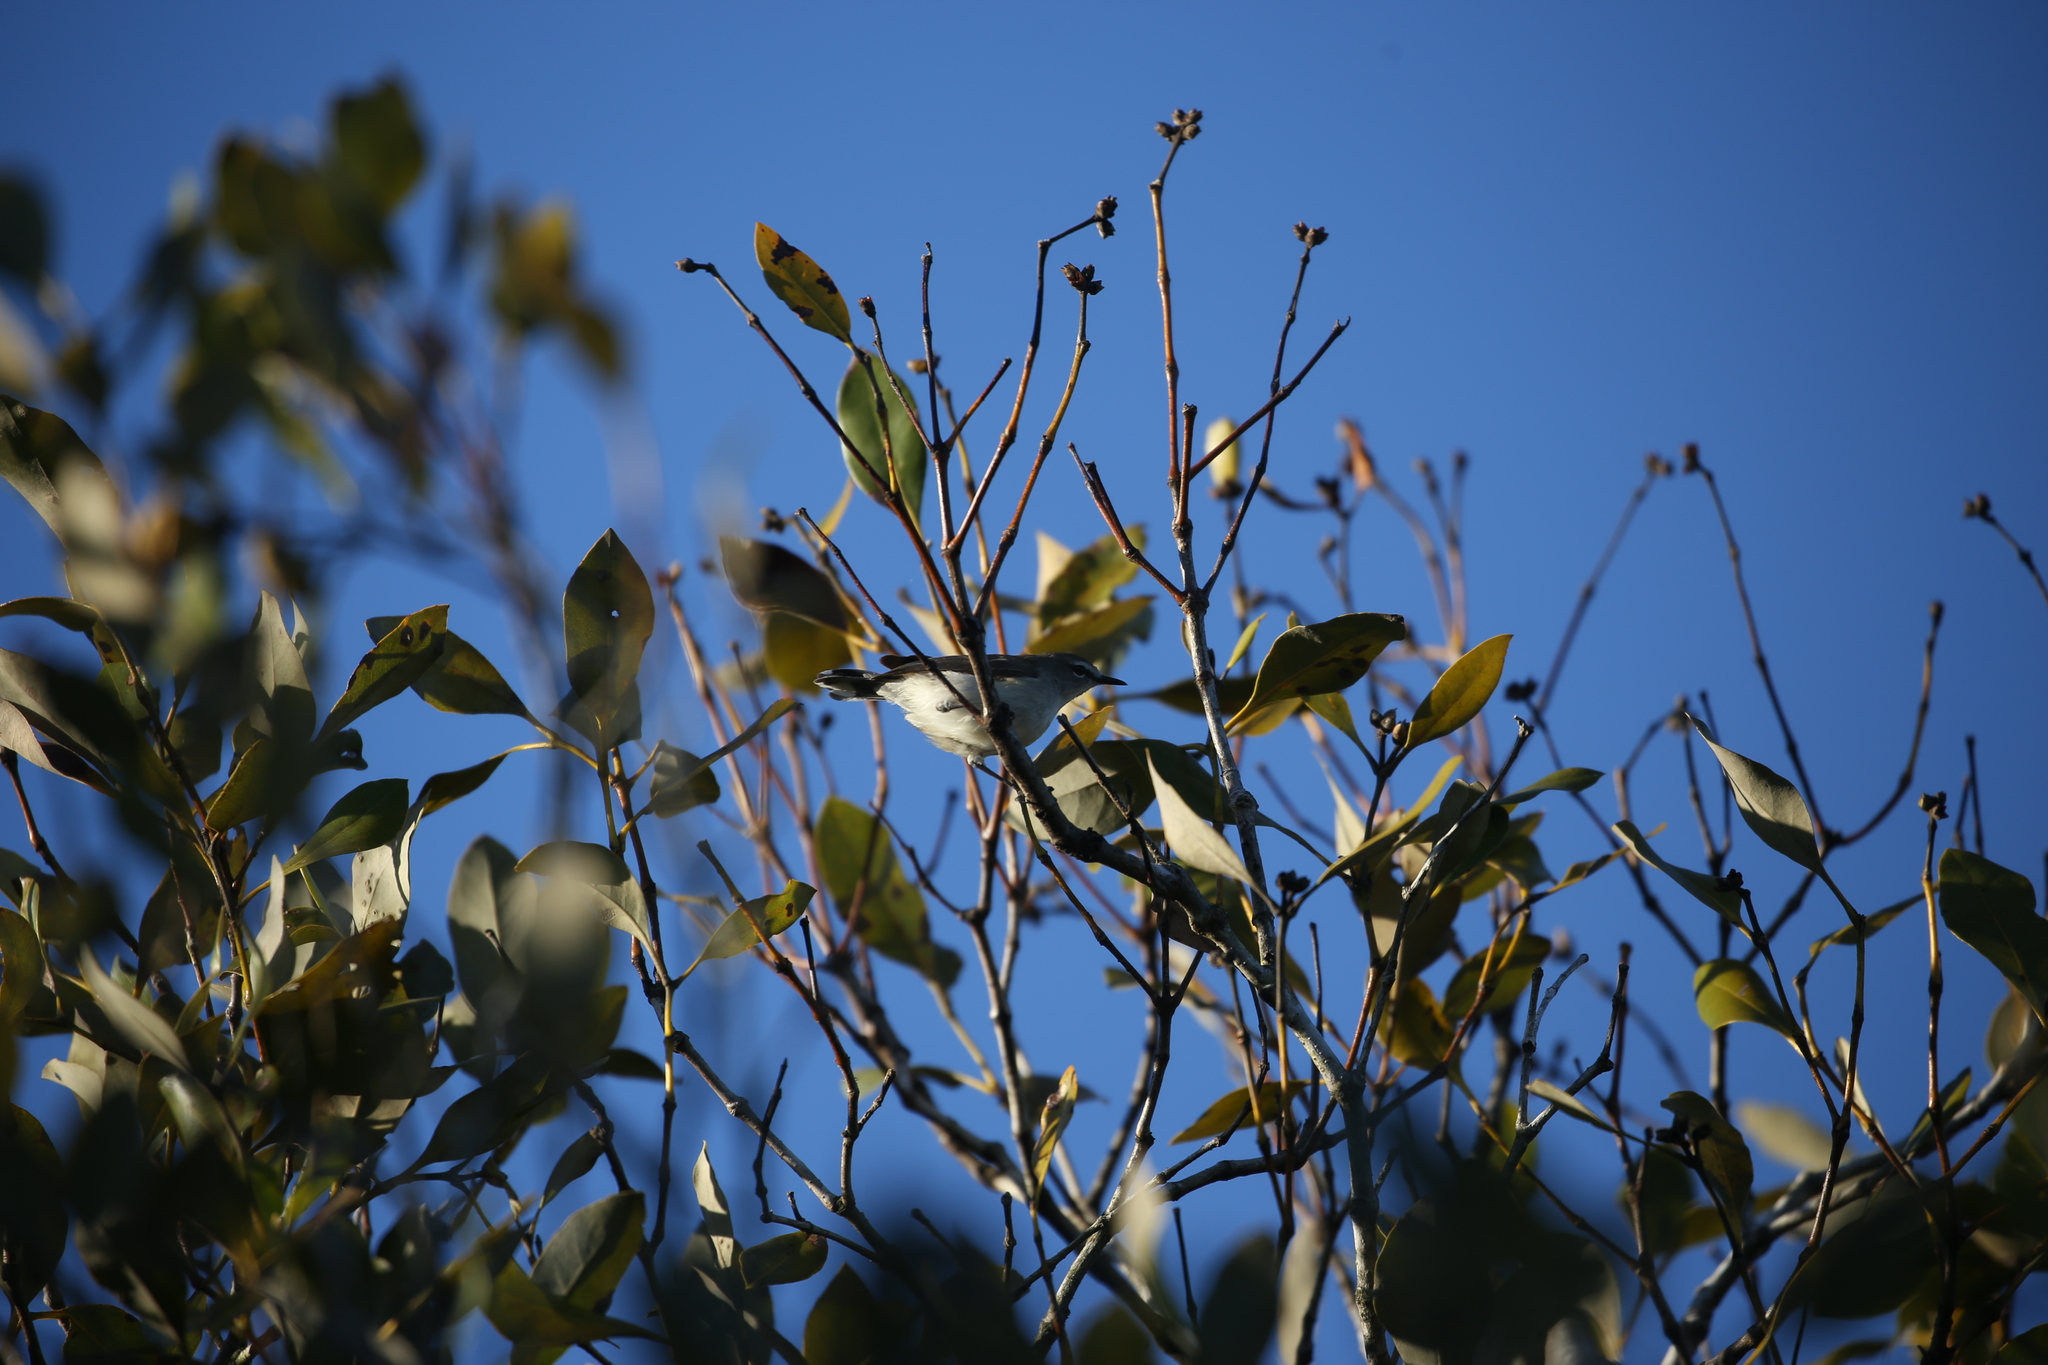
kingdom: Animalia
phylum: Chordata
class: Aves
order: Passeriformes
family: Acanthizidae
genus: Gerygone
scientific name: Gerygone levigaster
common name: Mangrove gerygone
